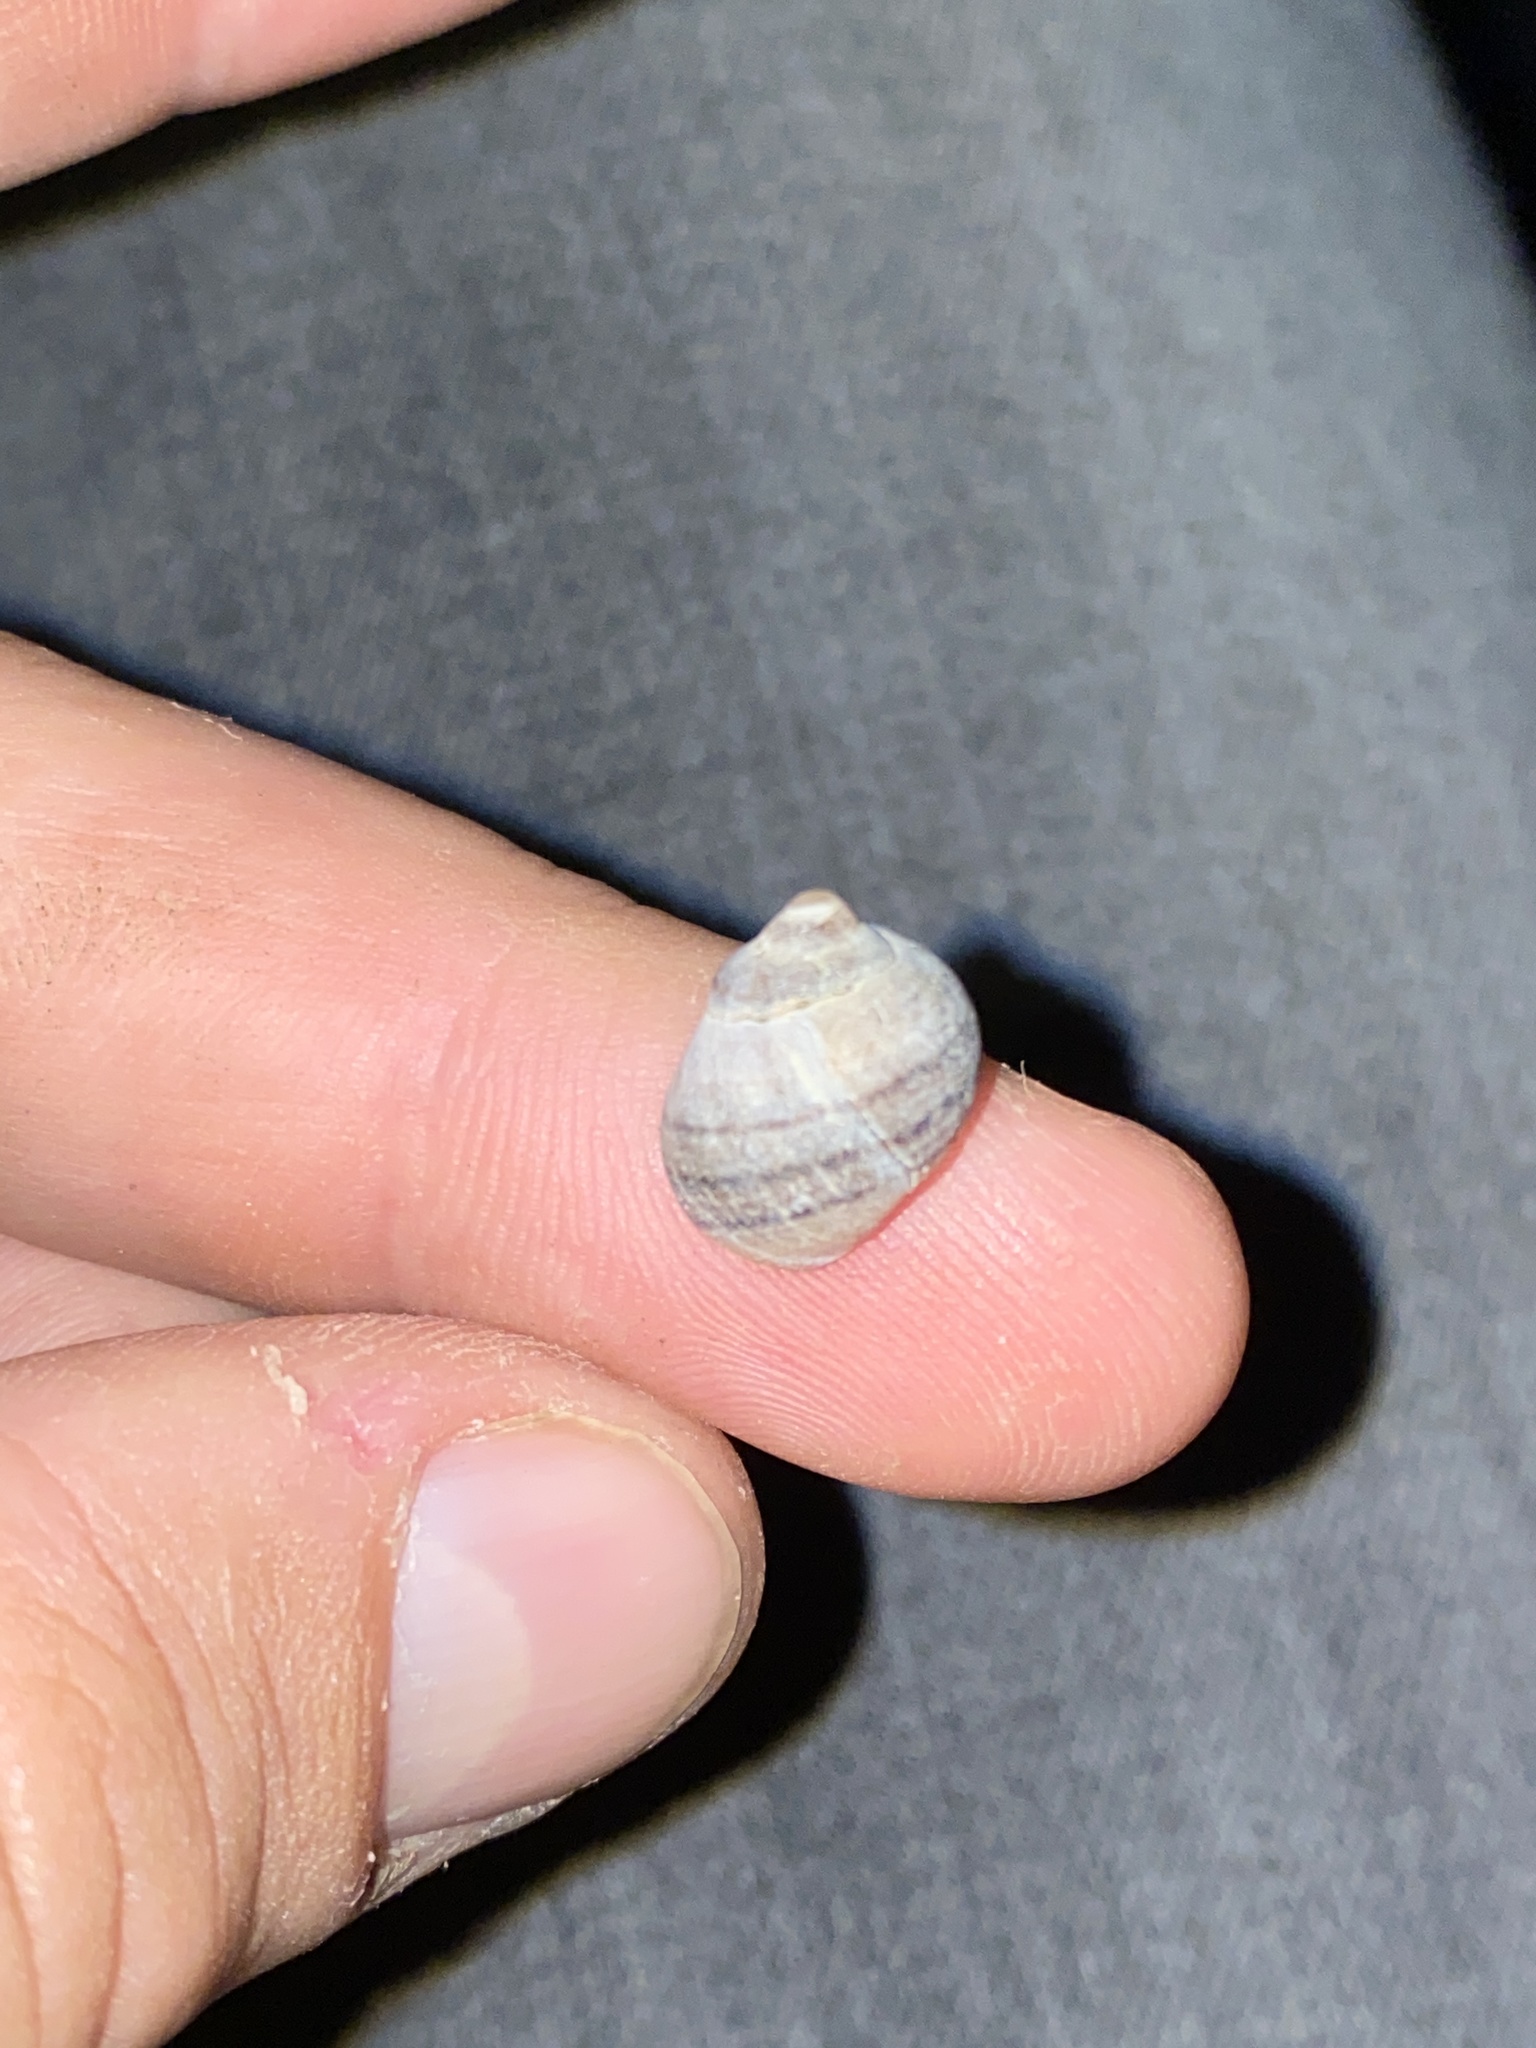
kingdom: Animalia
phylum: Mollusca
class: Gastropoda
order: Littorinimorpha
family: Littorinidae
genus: Littorina
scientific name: Littorina littorea
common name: Common periwinkle
